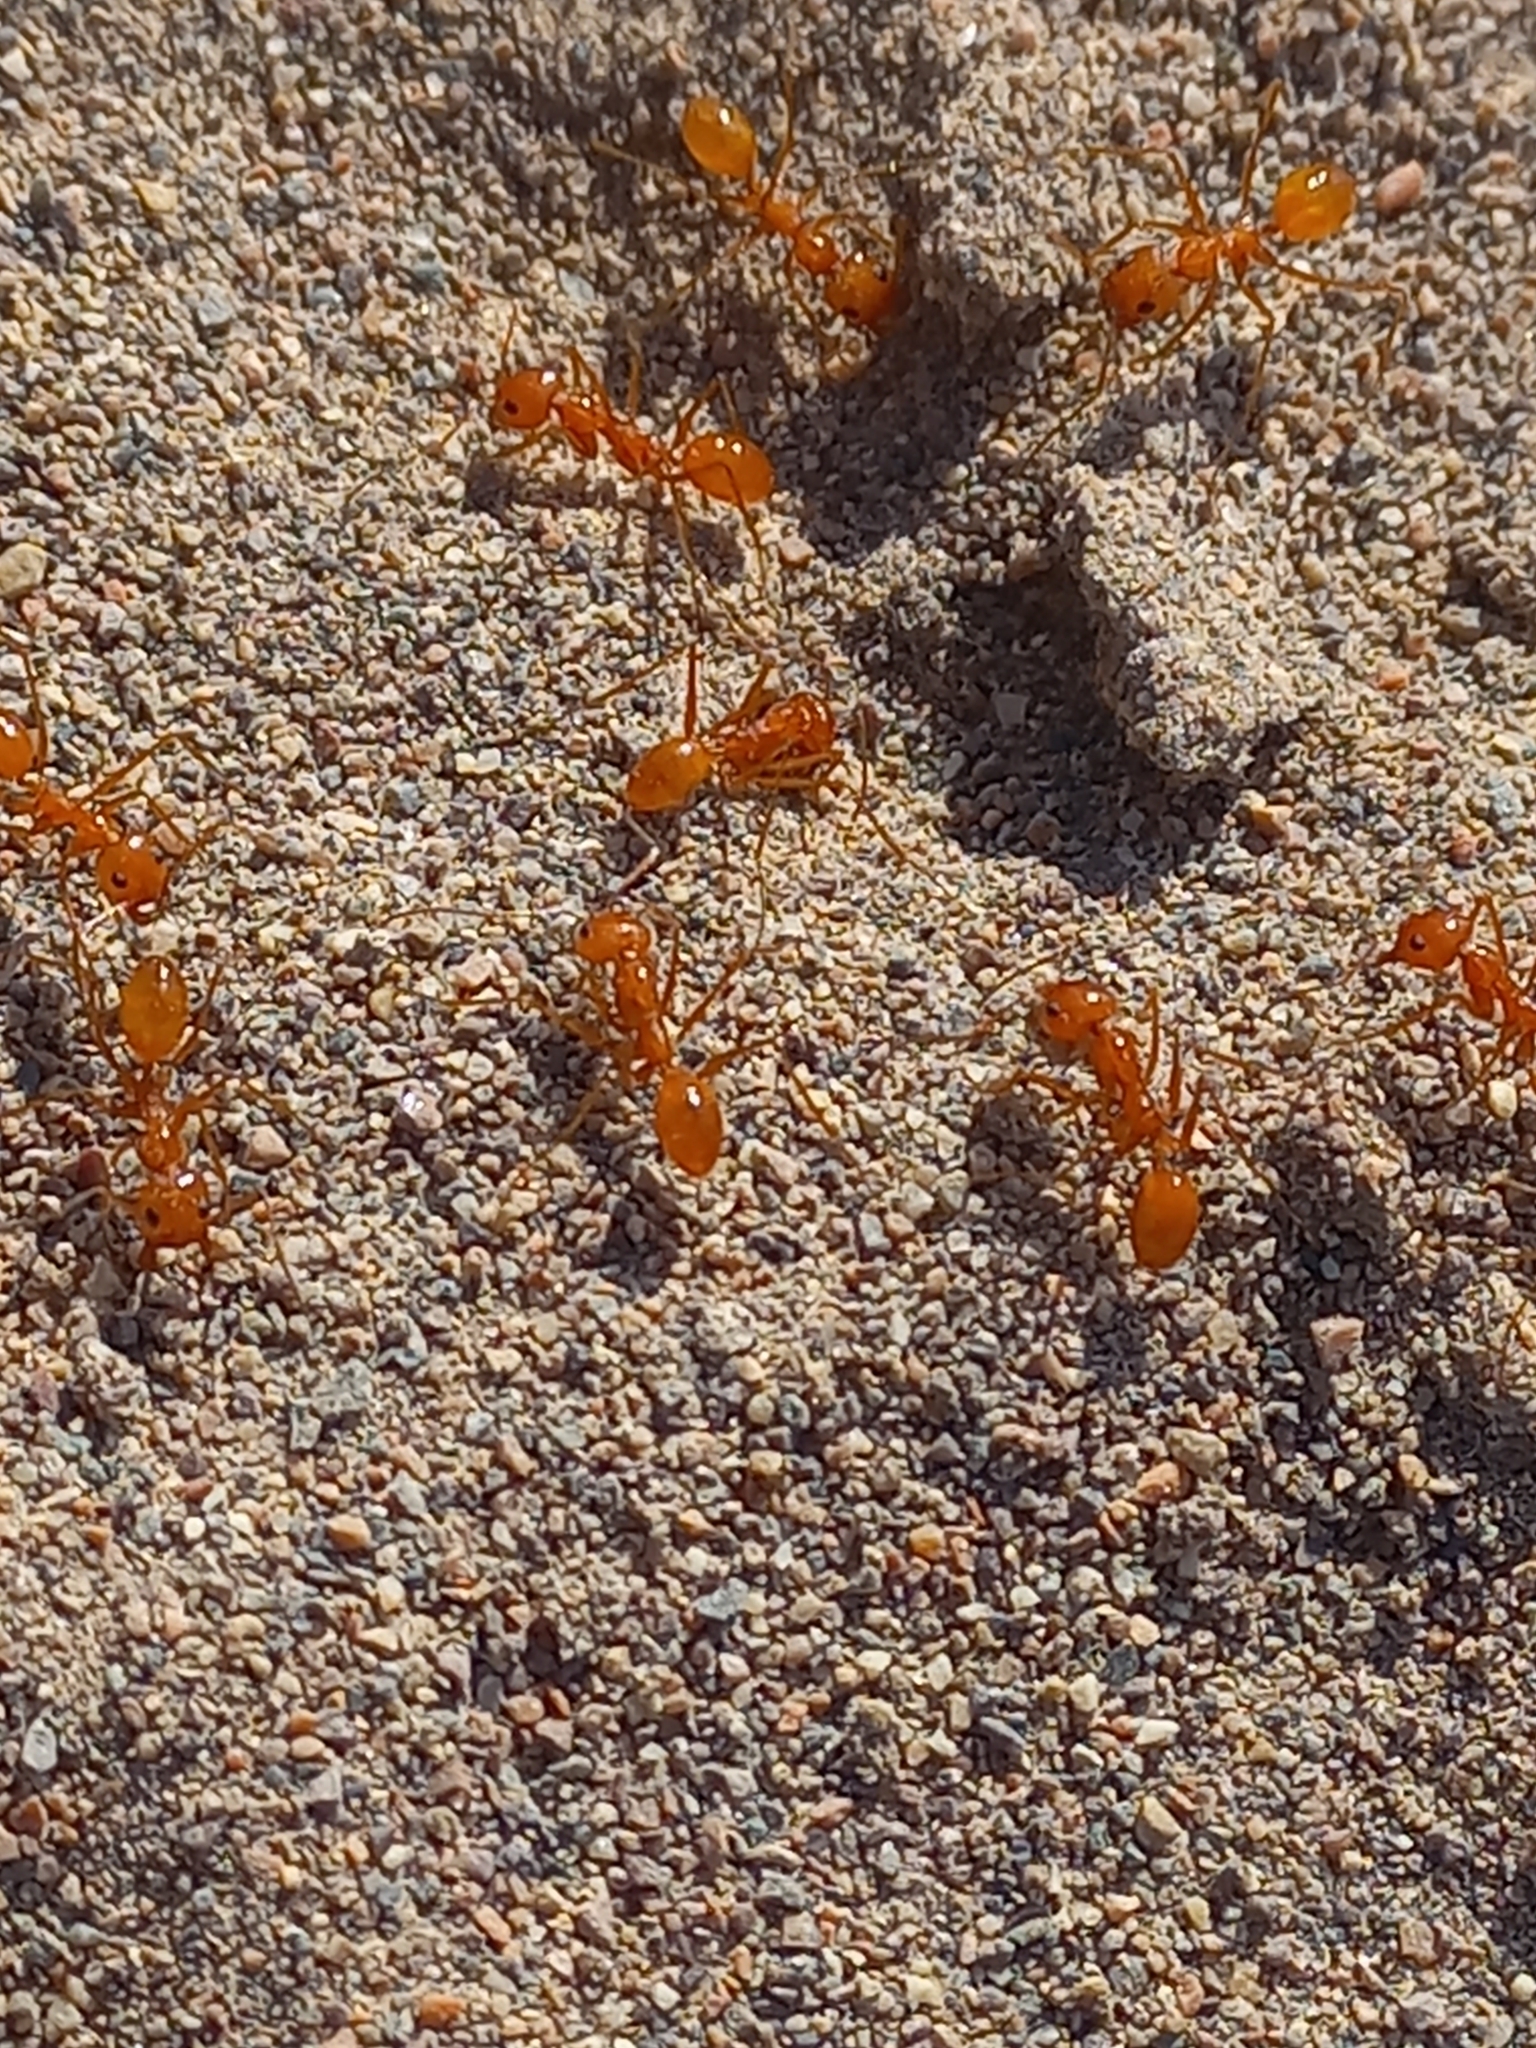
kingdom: Animalia
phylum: Arthropoda
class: Insecta
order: Hymenoptera
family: Formicidae
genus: Dorymyrmex
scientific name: Dorymyrmex planidens
